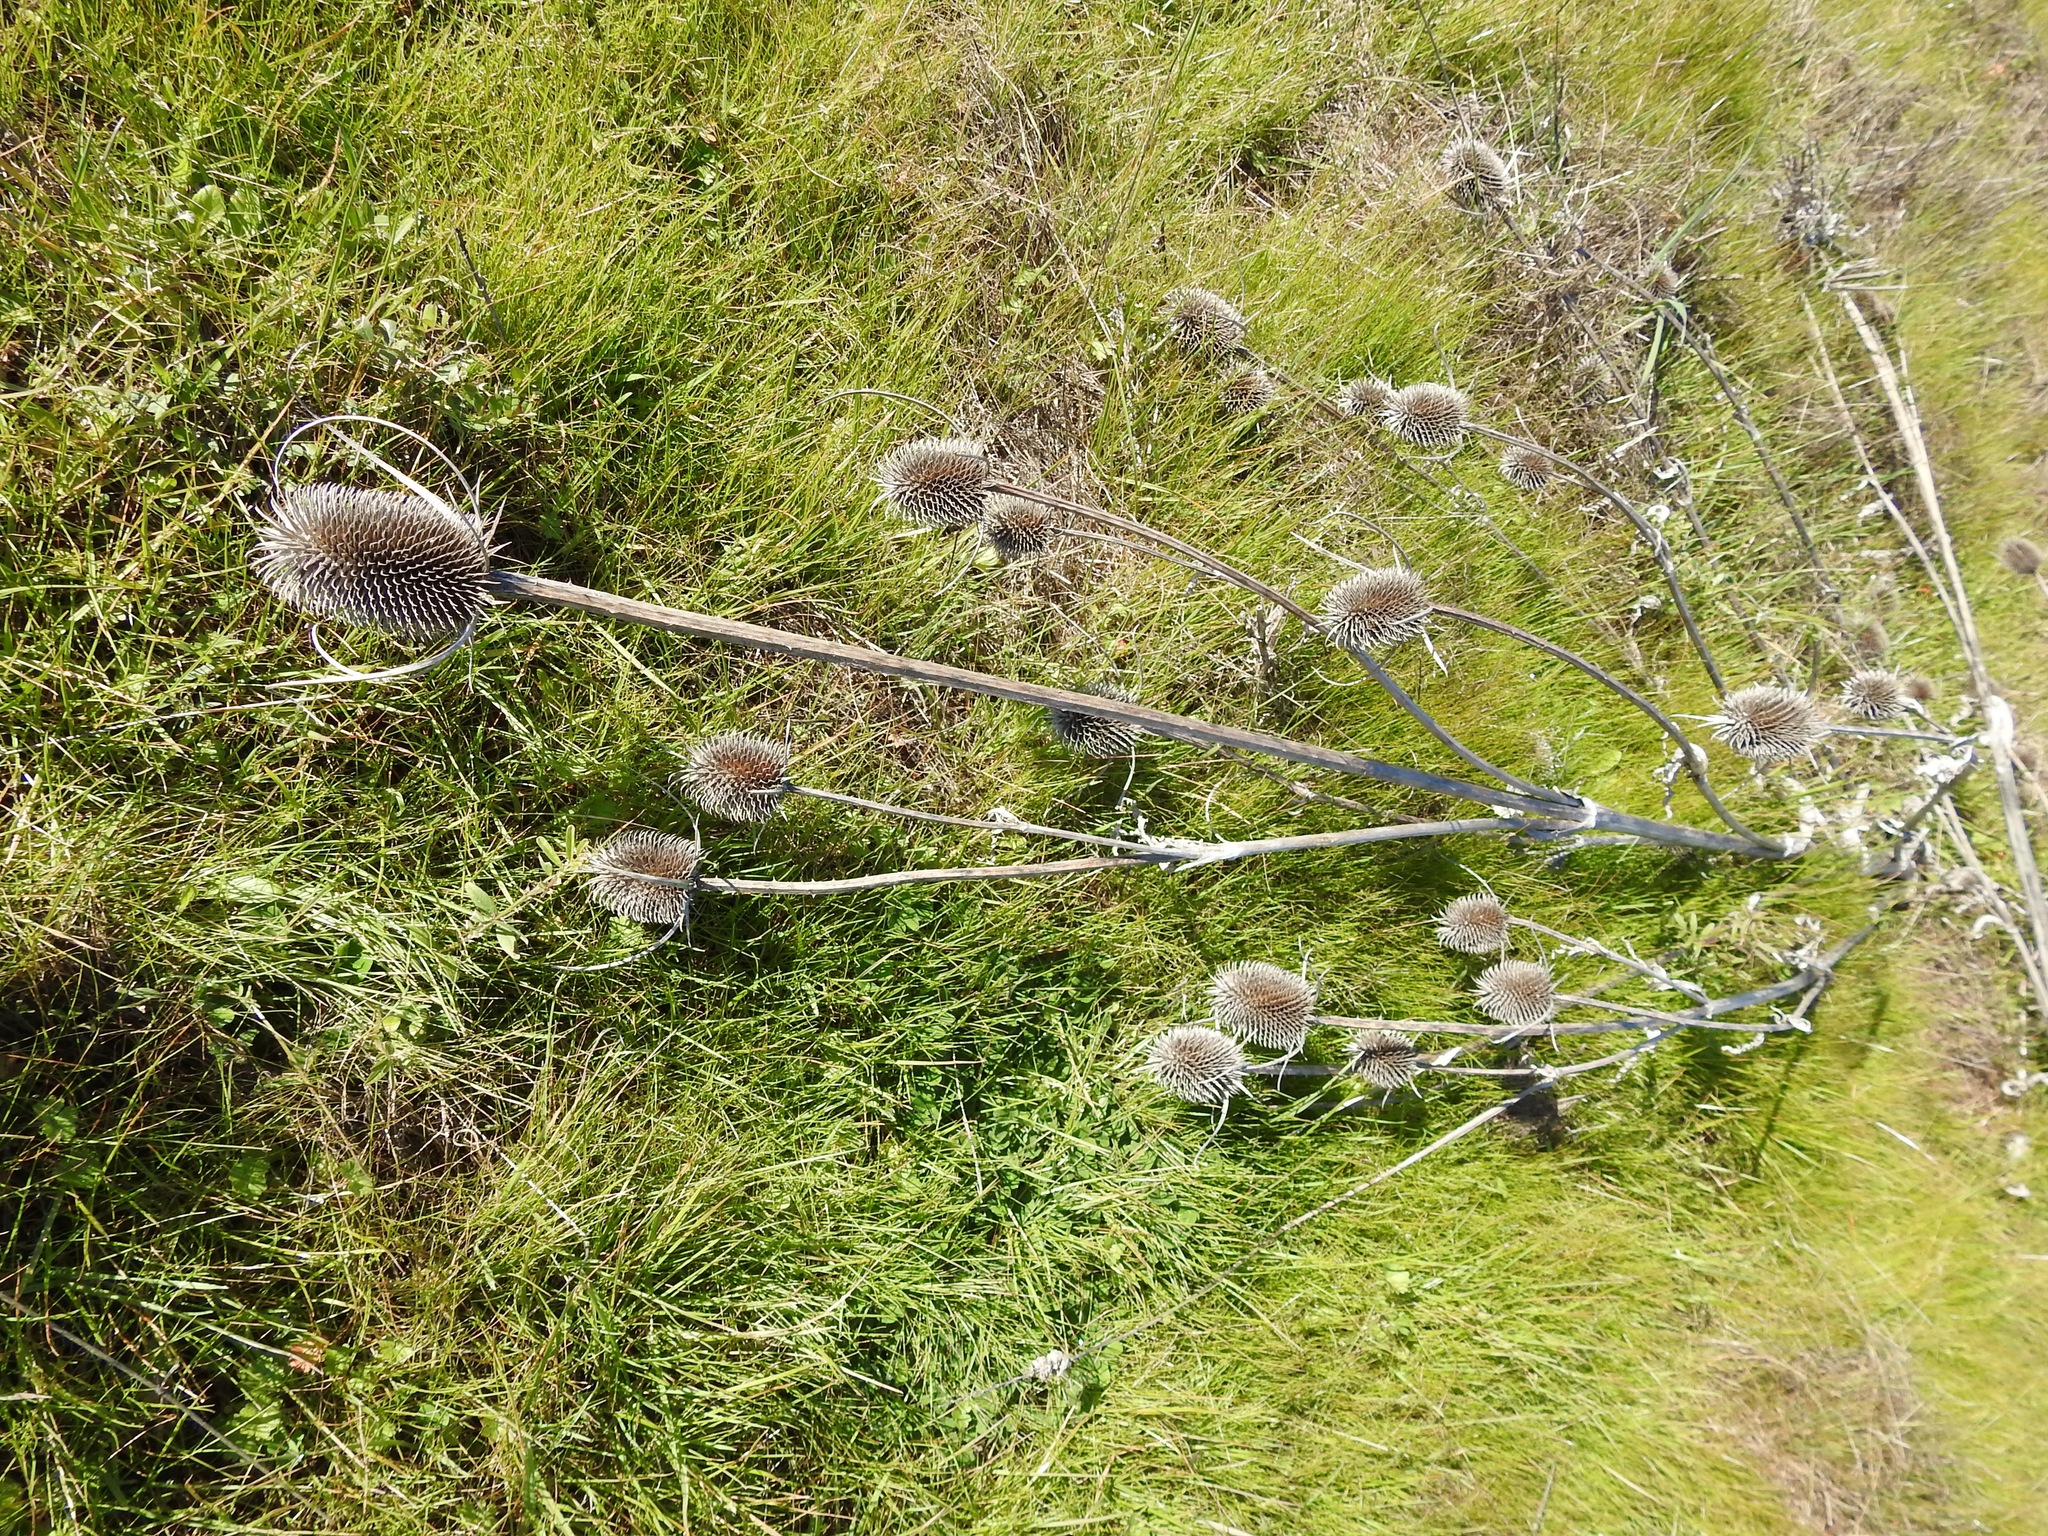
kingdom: Plantae
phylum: Tracheophyta
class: Magnoliopsida
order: Dipsacales
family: Caprifoliaceae
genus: Dipsacus
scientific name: Dipsacus sativus
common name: Fuller's teasel
